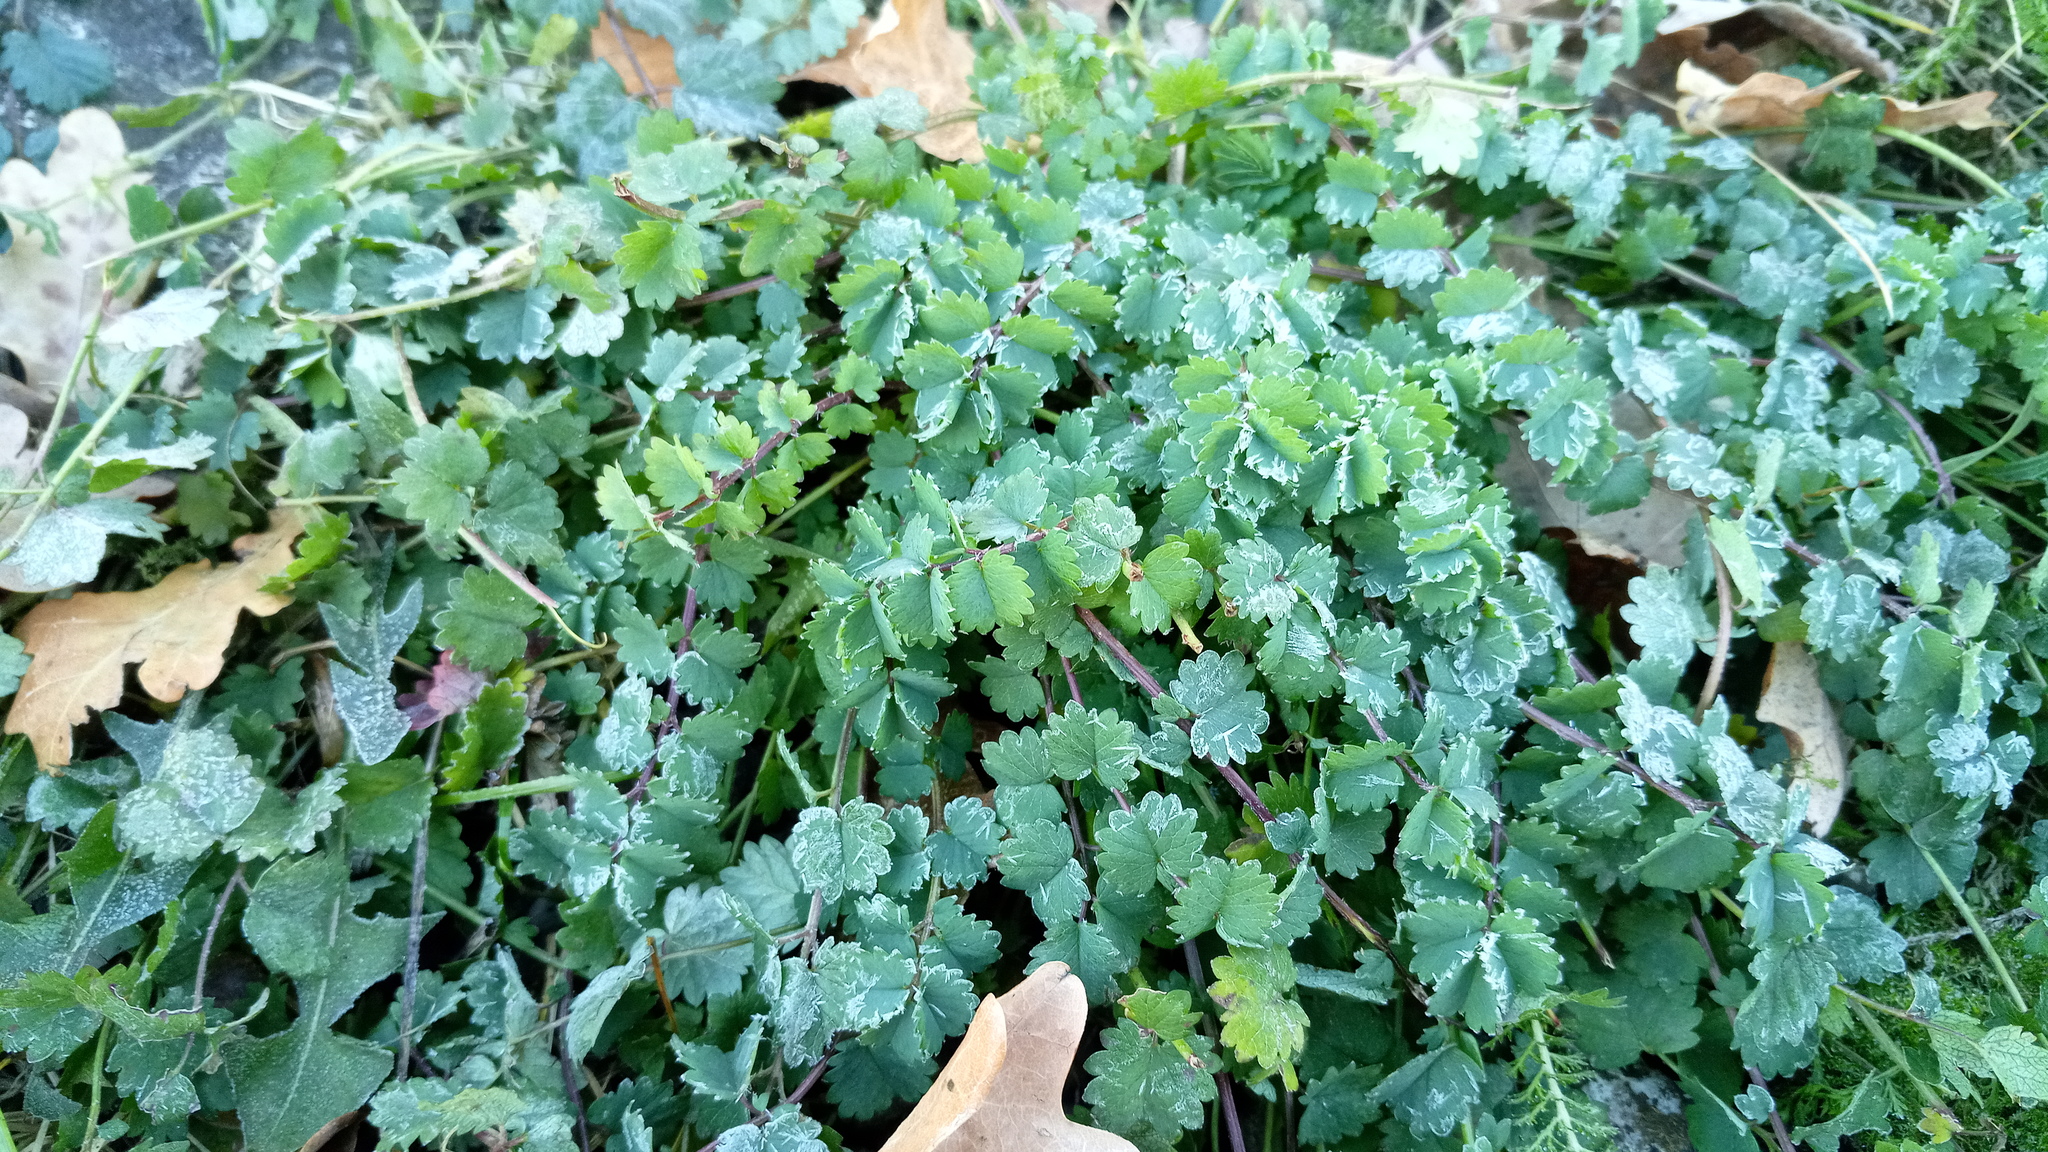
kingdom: Plantae
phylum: Tracheophyta
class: Magnoliopsida
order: Rosales
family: Rosaceae
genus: Poterium
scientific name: Poterium sanguisorba
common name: Salad burnet
